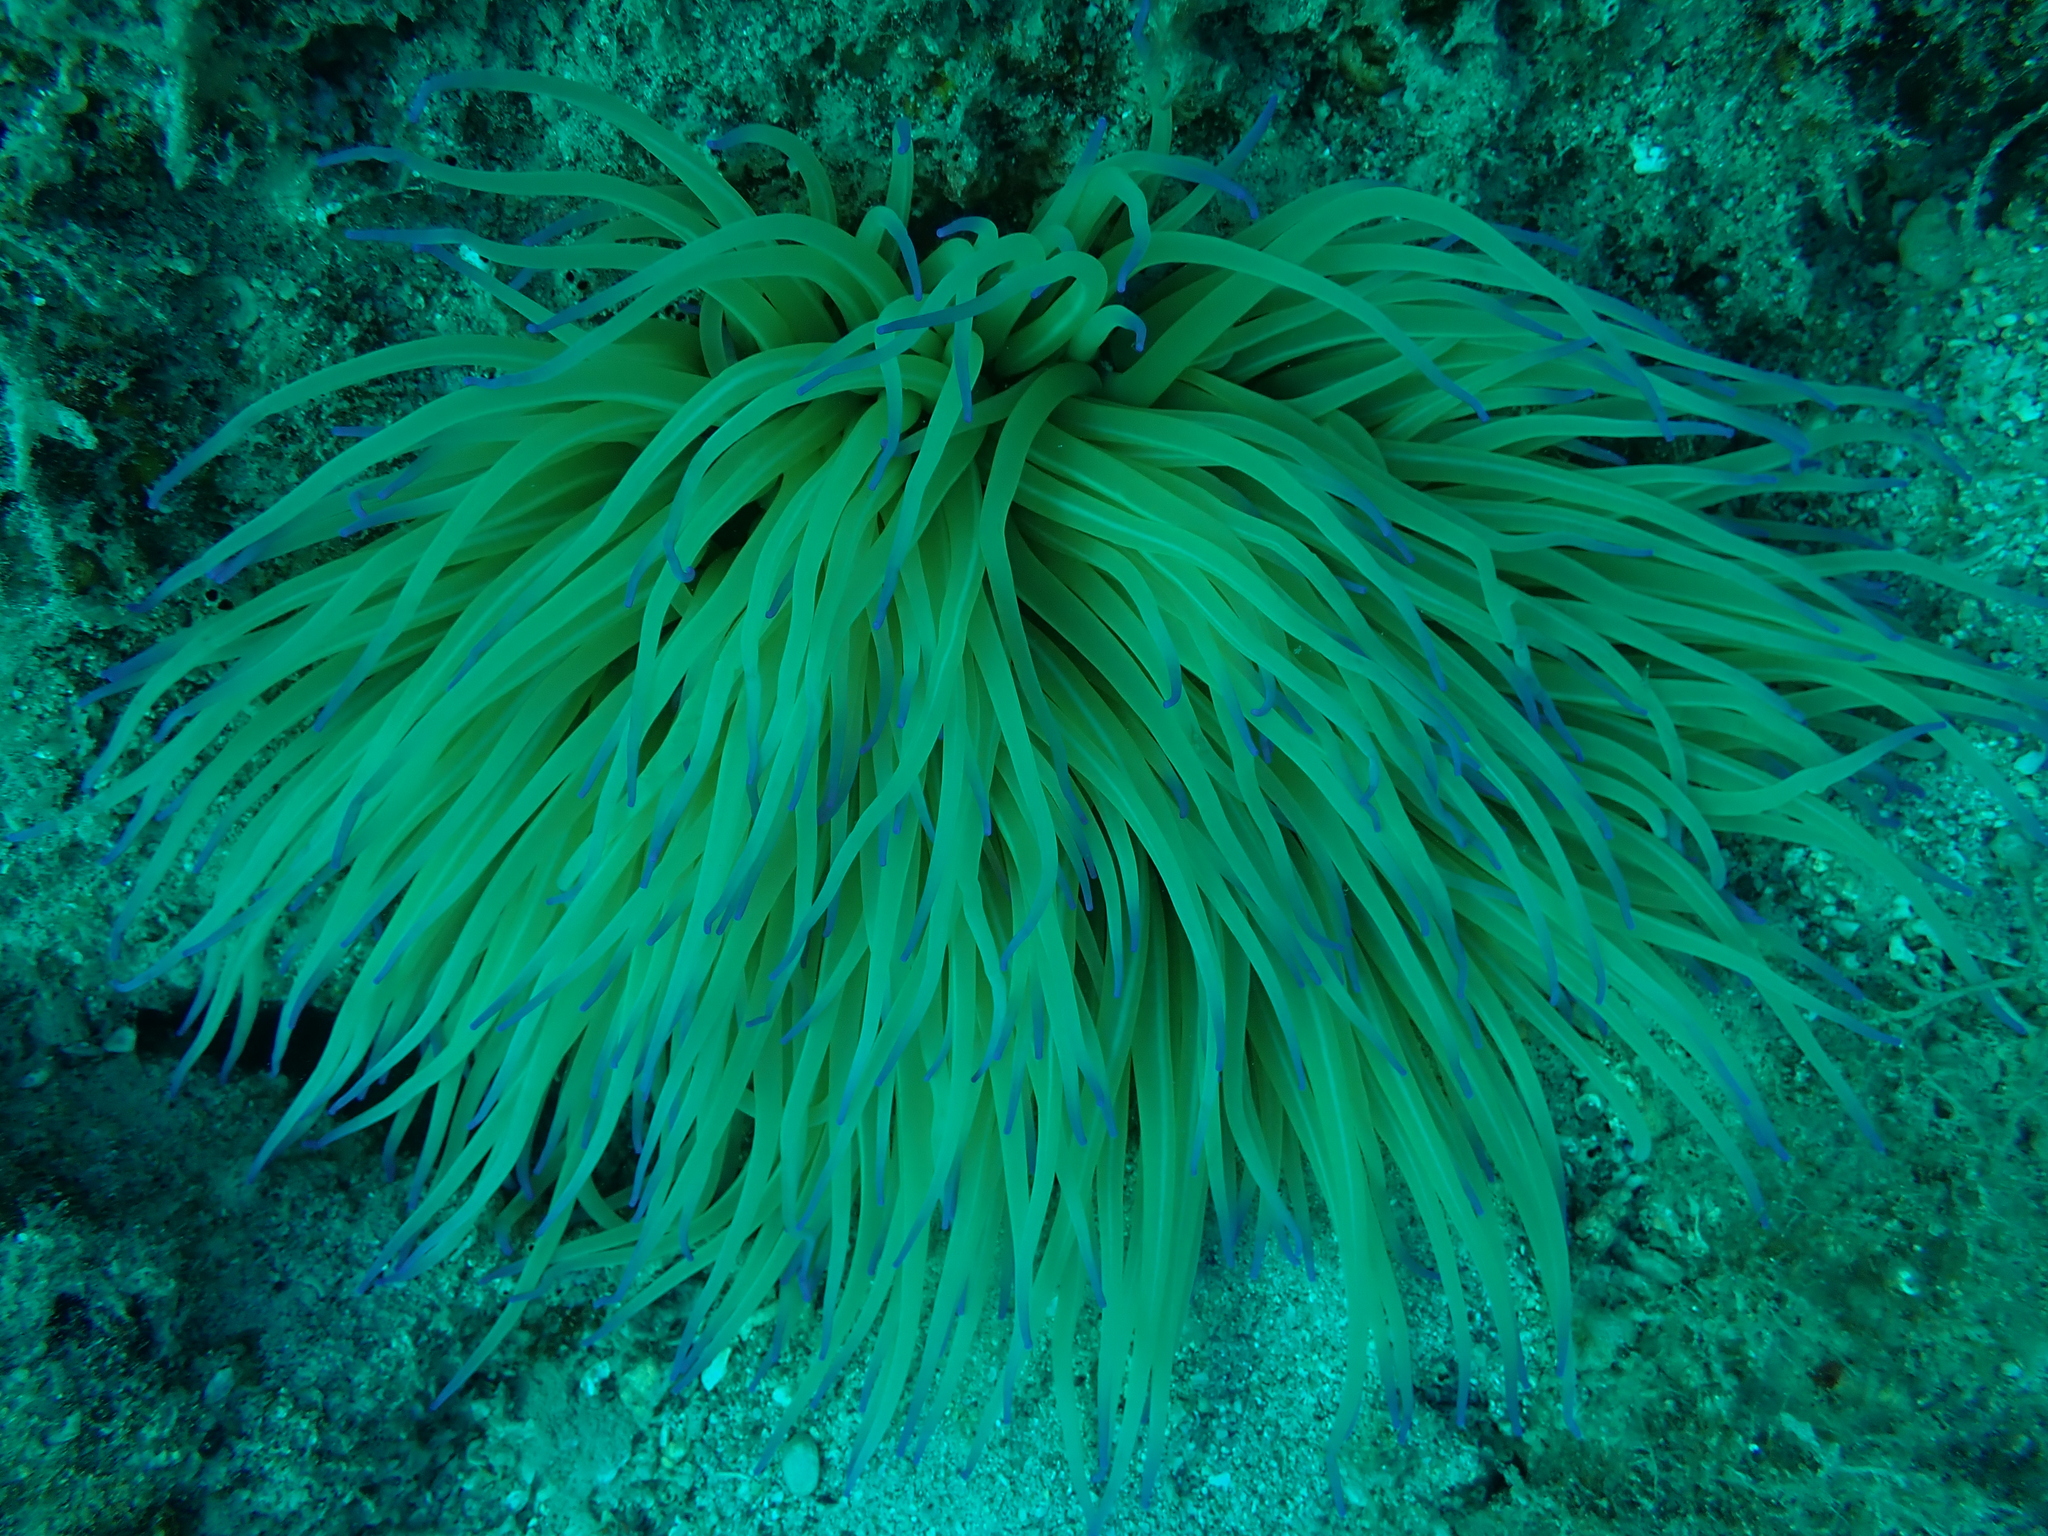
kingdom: Animalia
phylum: Cnidaria
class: Anthozoa
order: Actiniaria
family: Actiniidae
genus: Anemonia
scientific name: Anemonia viridis
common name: Snakelocks anemone
